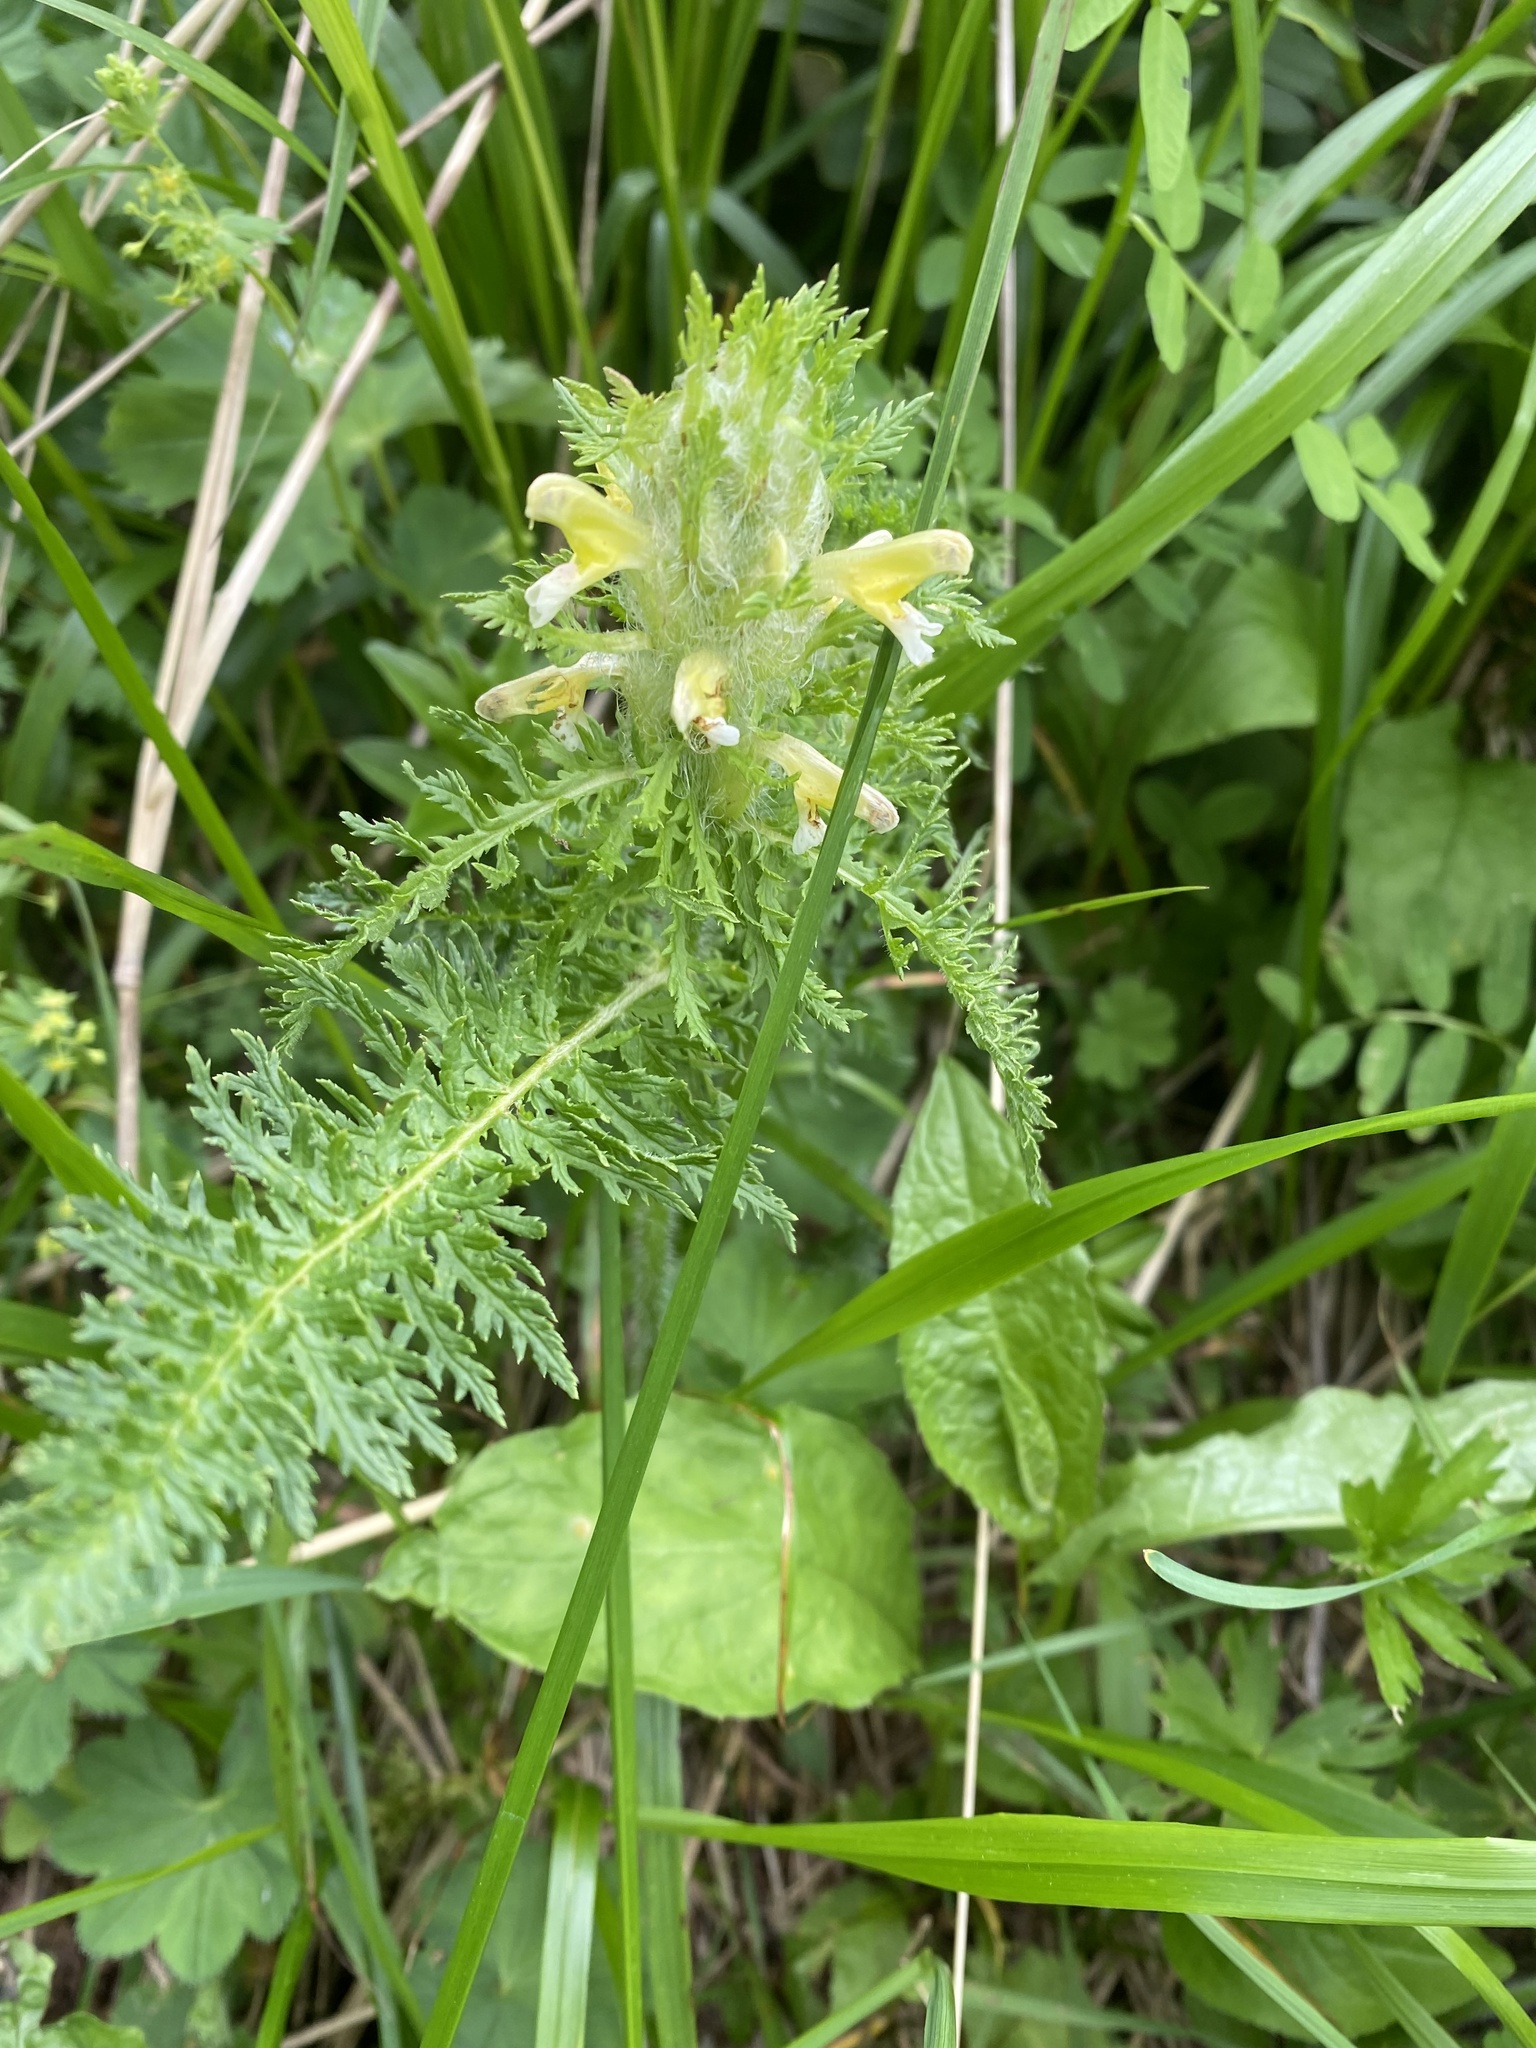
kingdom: Plantae
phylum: Tracheophyta
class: Magnoliopsida
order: Lamiales
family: Orobanchaceae
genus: Pedicularis
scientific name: Pedicularis condensata
